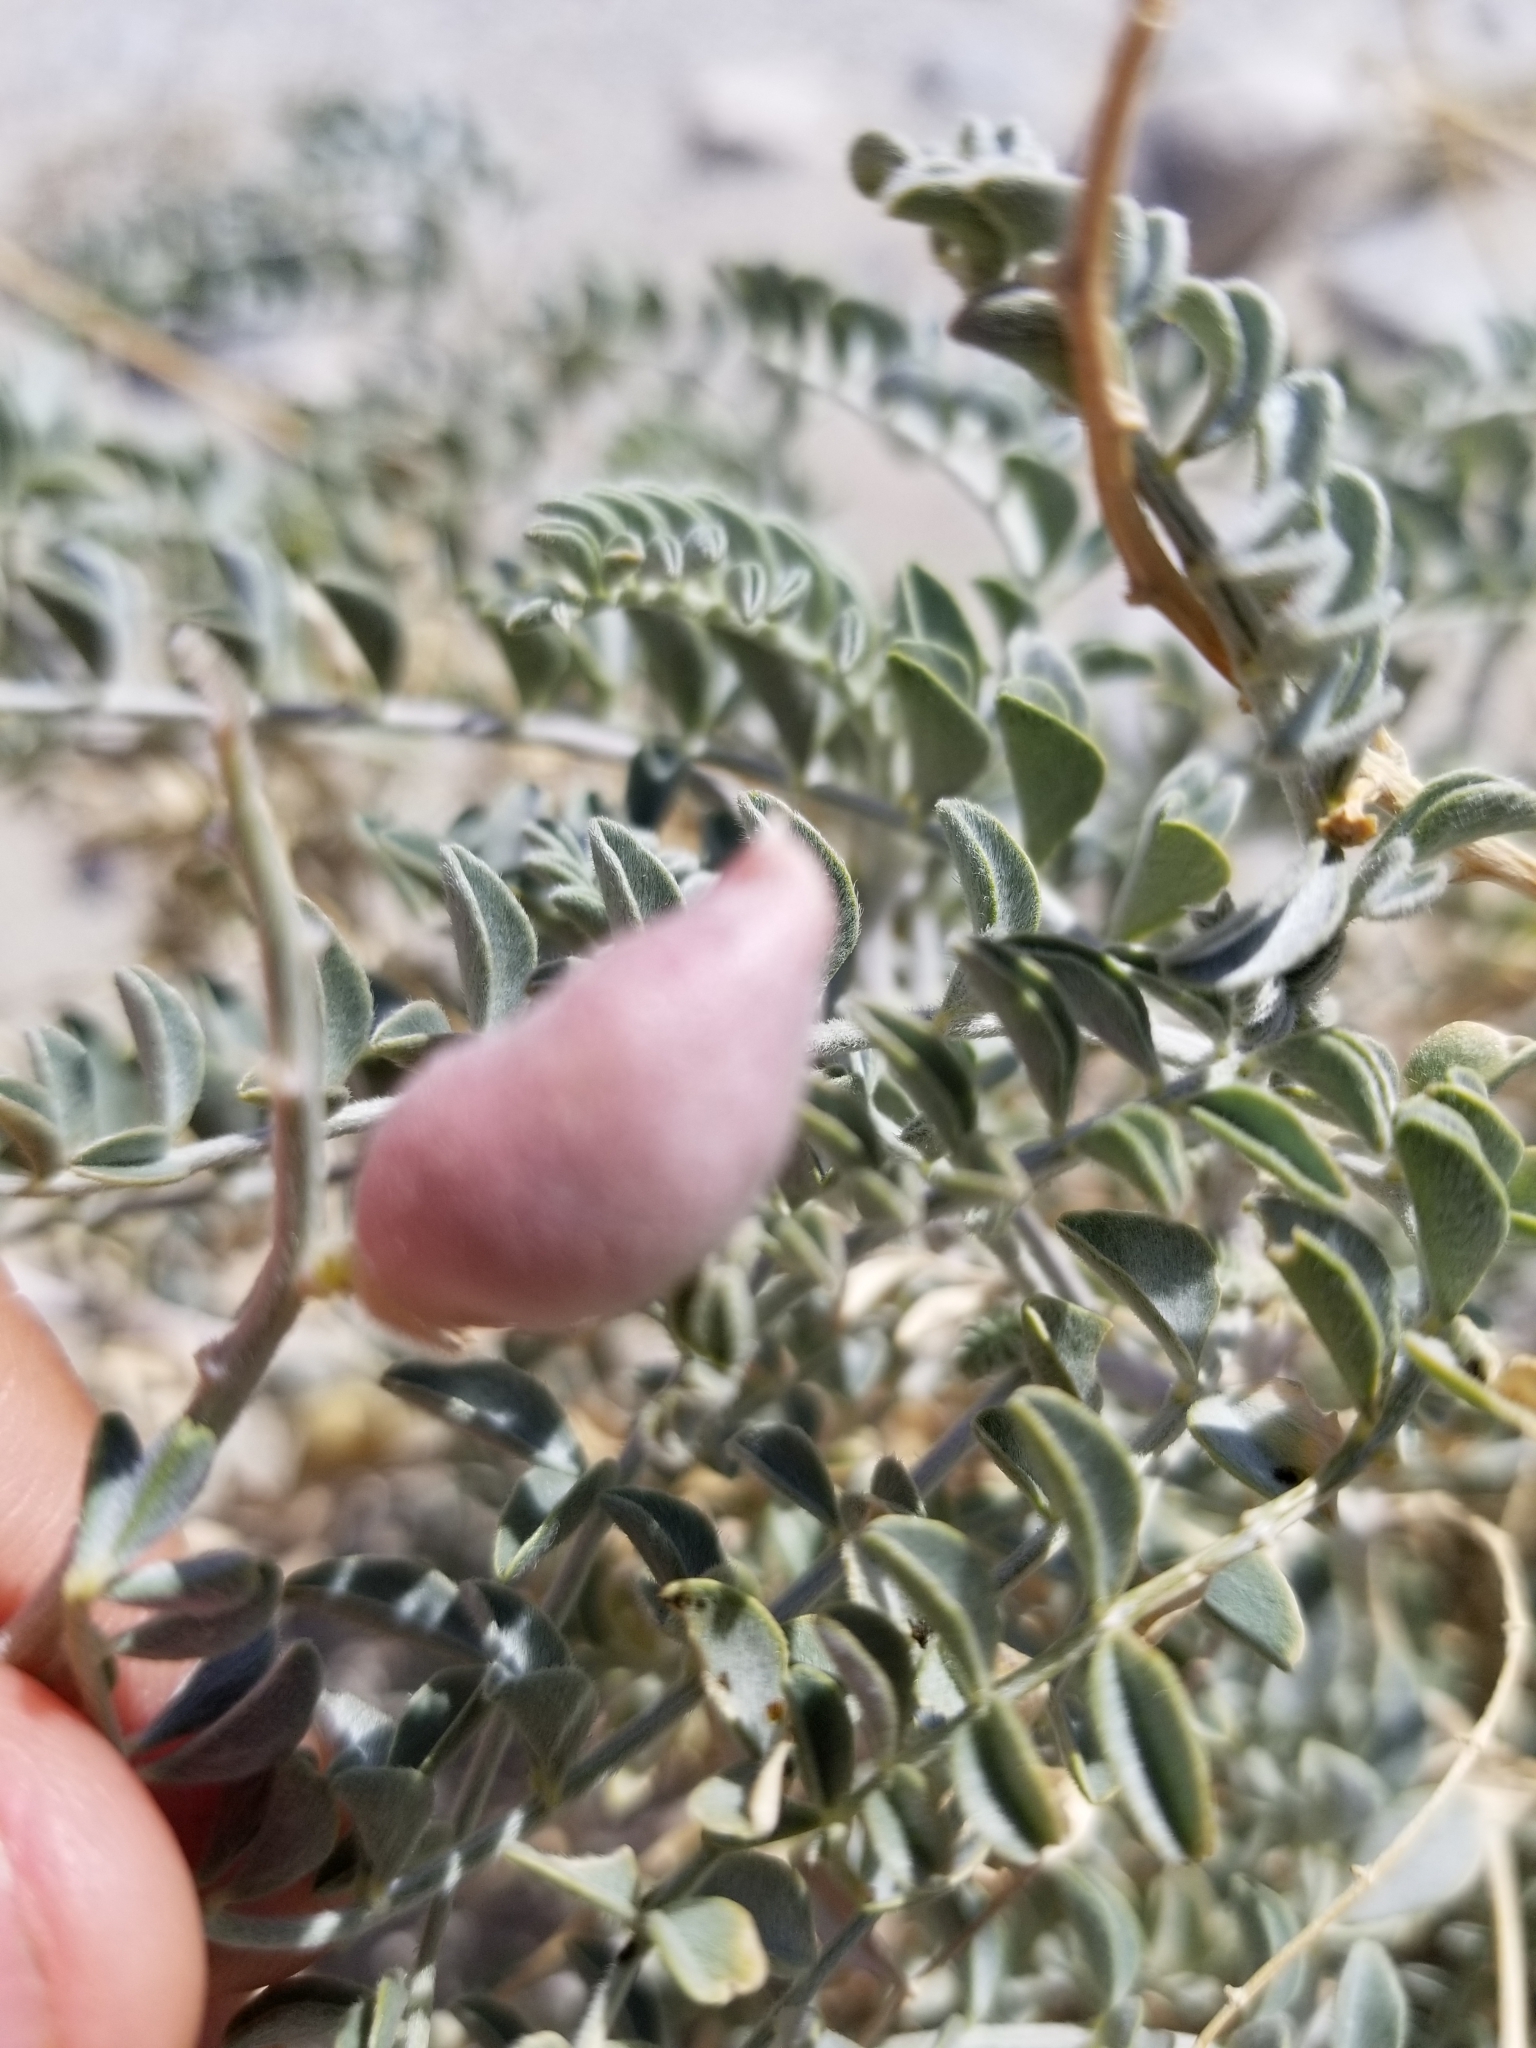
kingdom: Plantae
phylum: Tracheophyta
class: Magnoliopsida
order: Fabales
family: Fabaceae
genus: Astragalus
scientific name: Astragalus lentiginosus
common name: Freckled milkvetch
